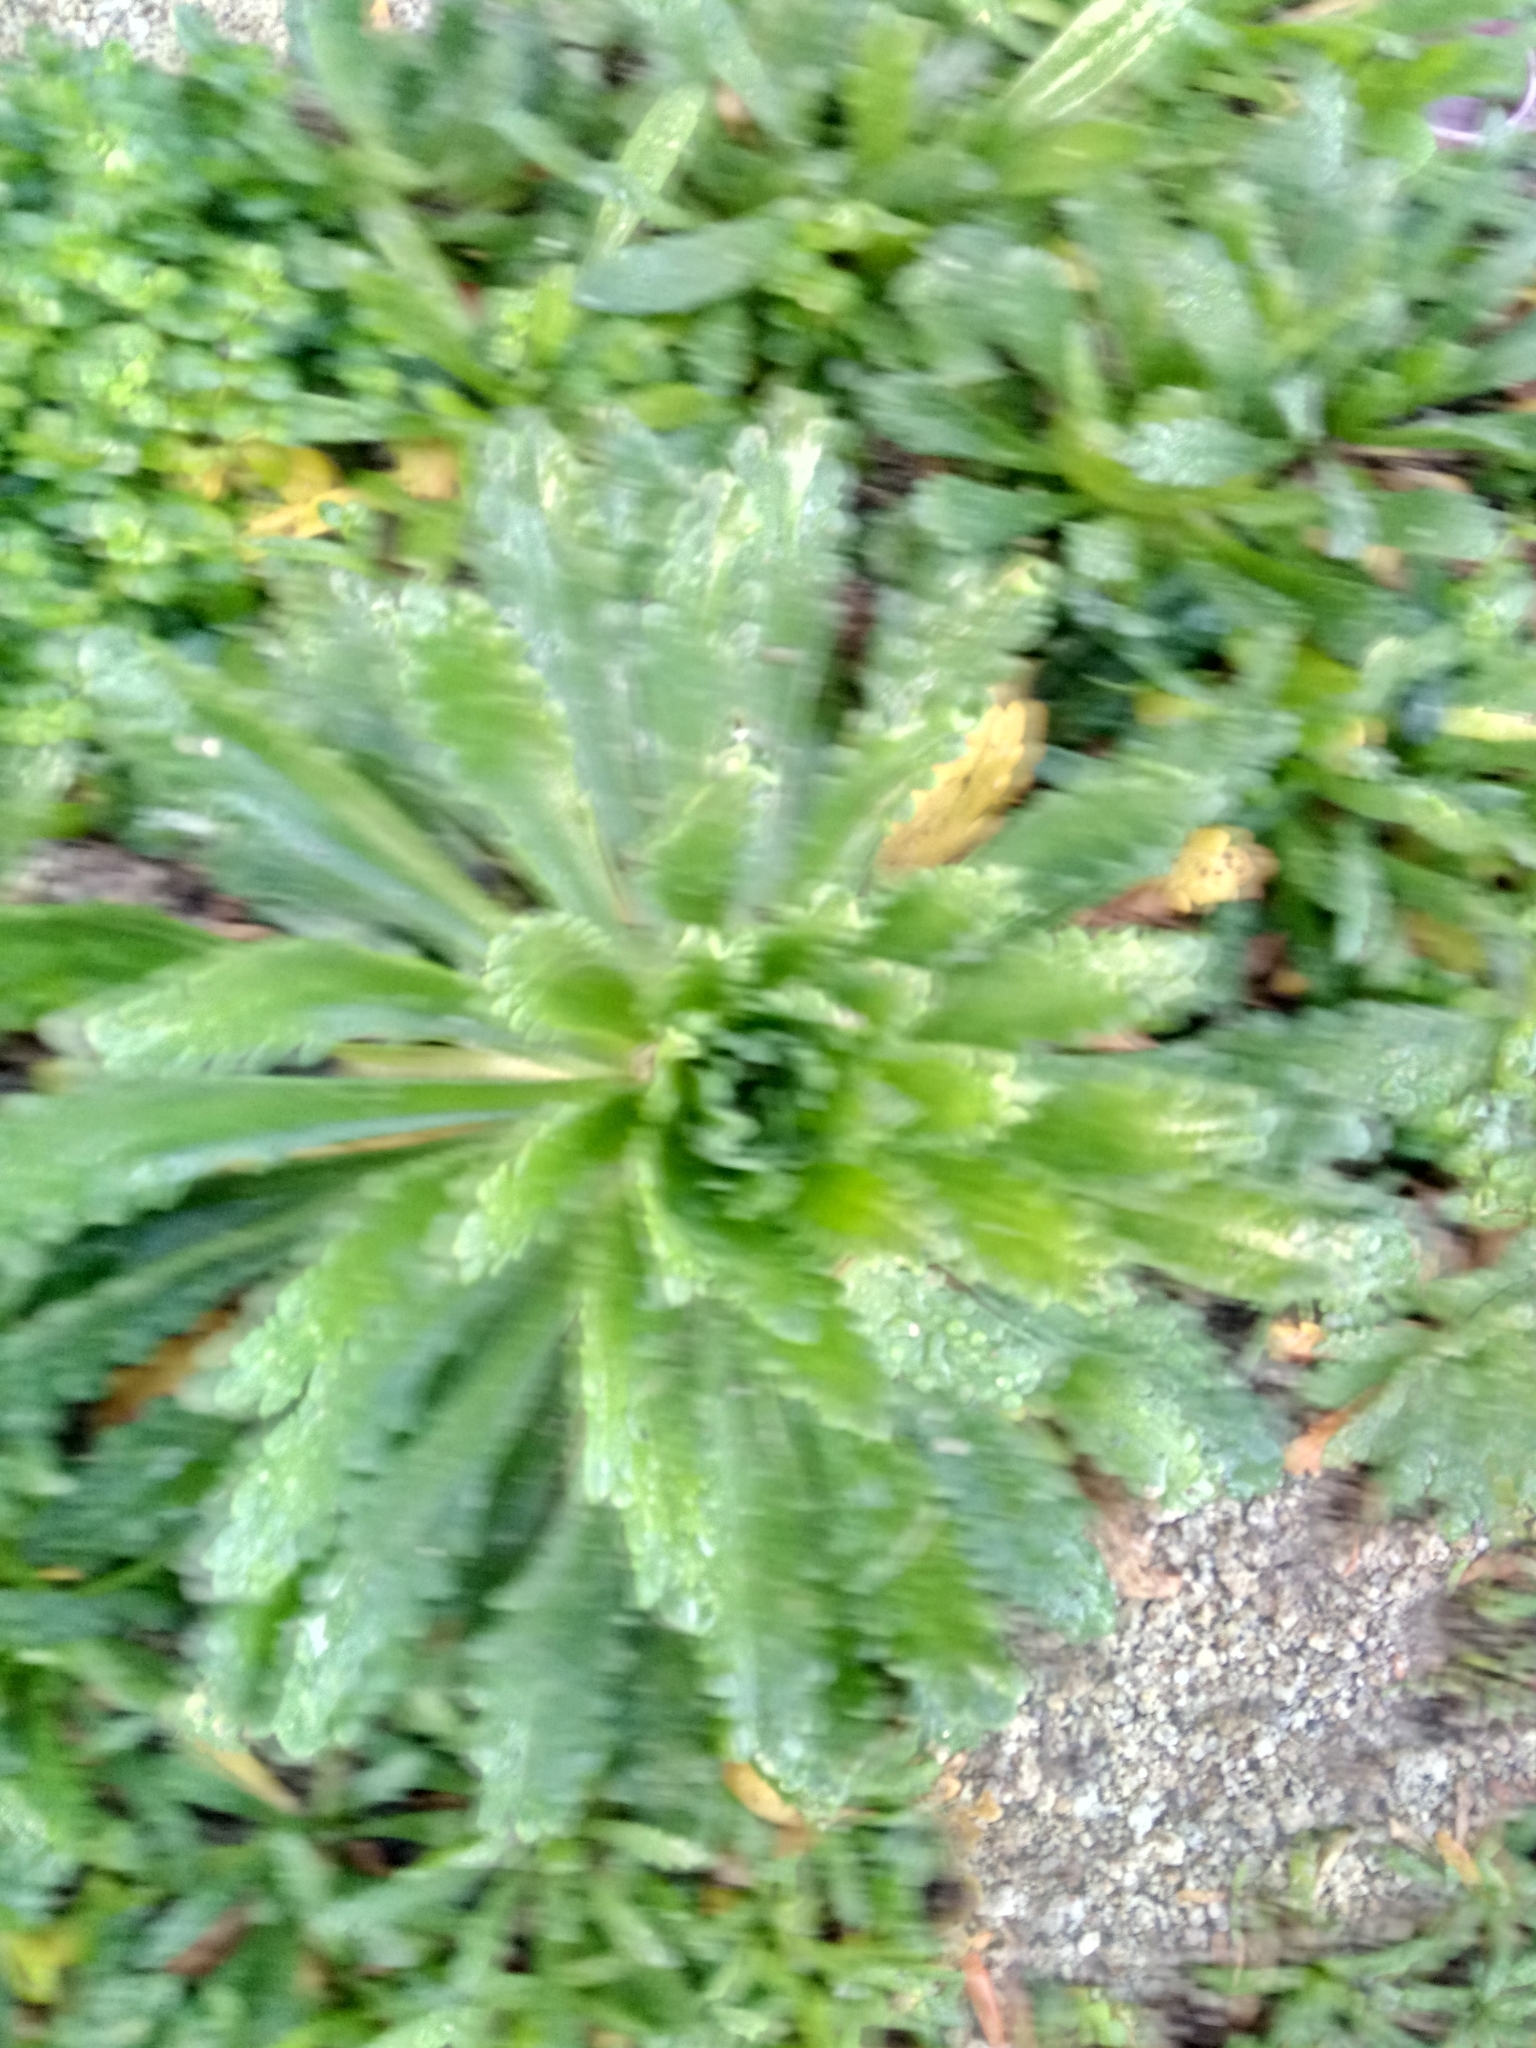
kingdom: Plantae
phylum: Tracheophyta
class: Magnoliopsida
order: Lamiales
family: Plantaginaceae
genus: Plantago
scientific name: Plantago macrorhiza
